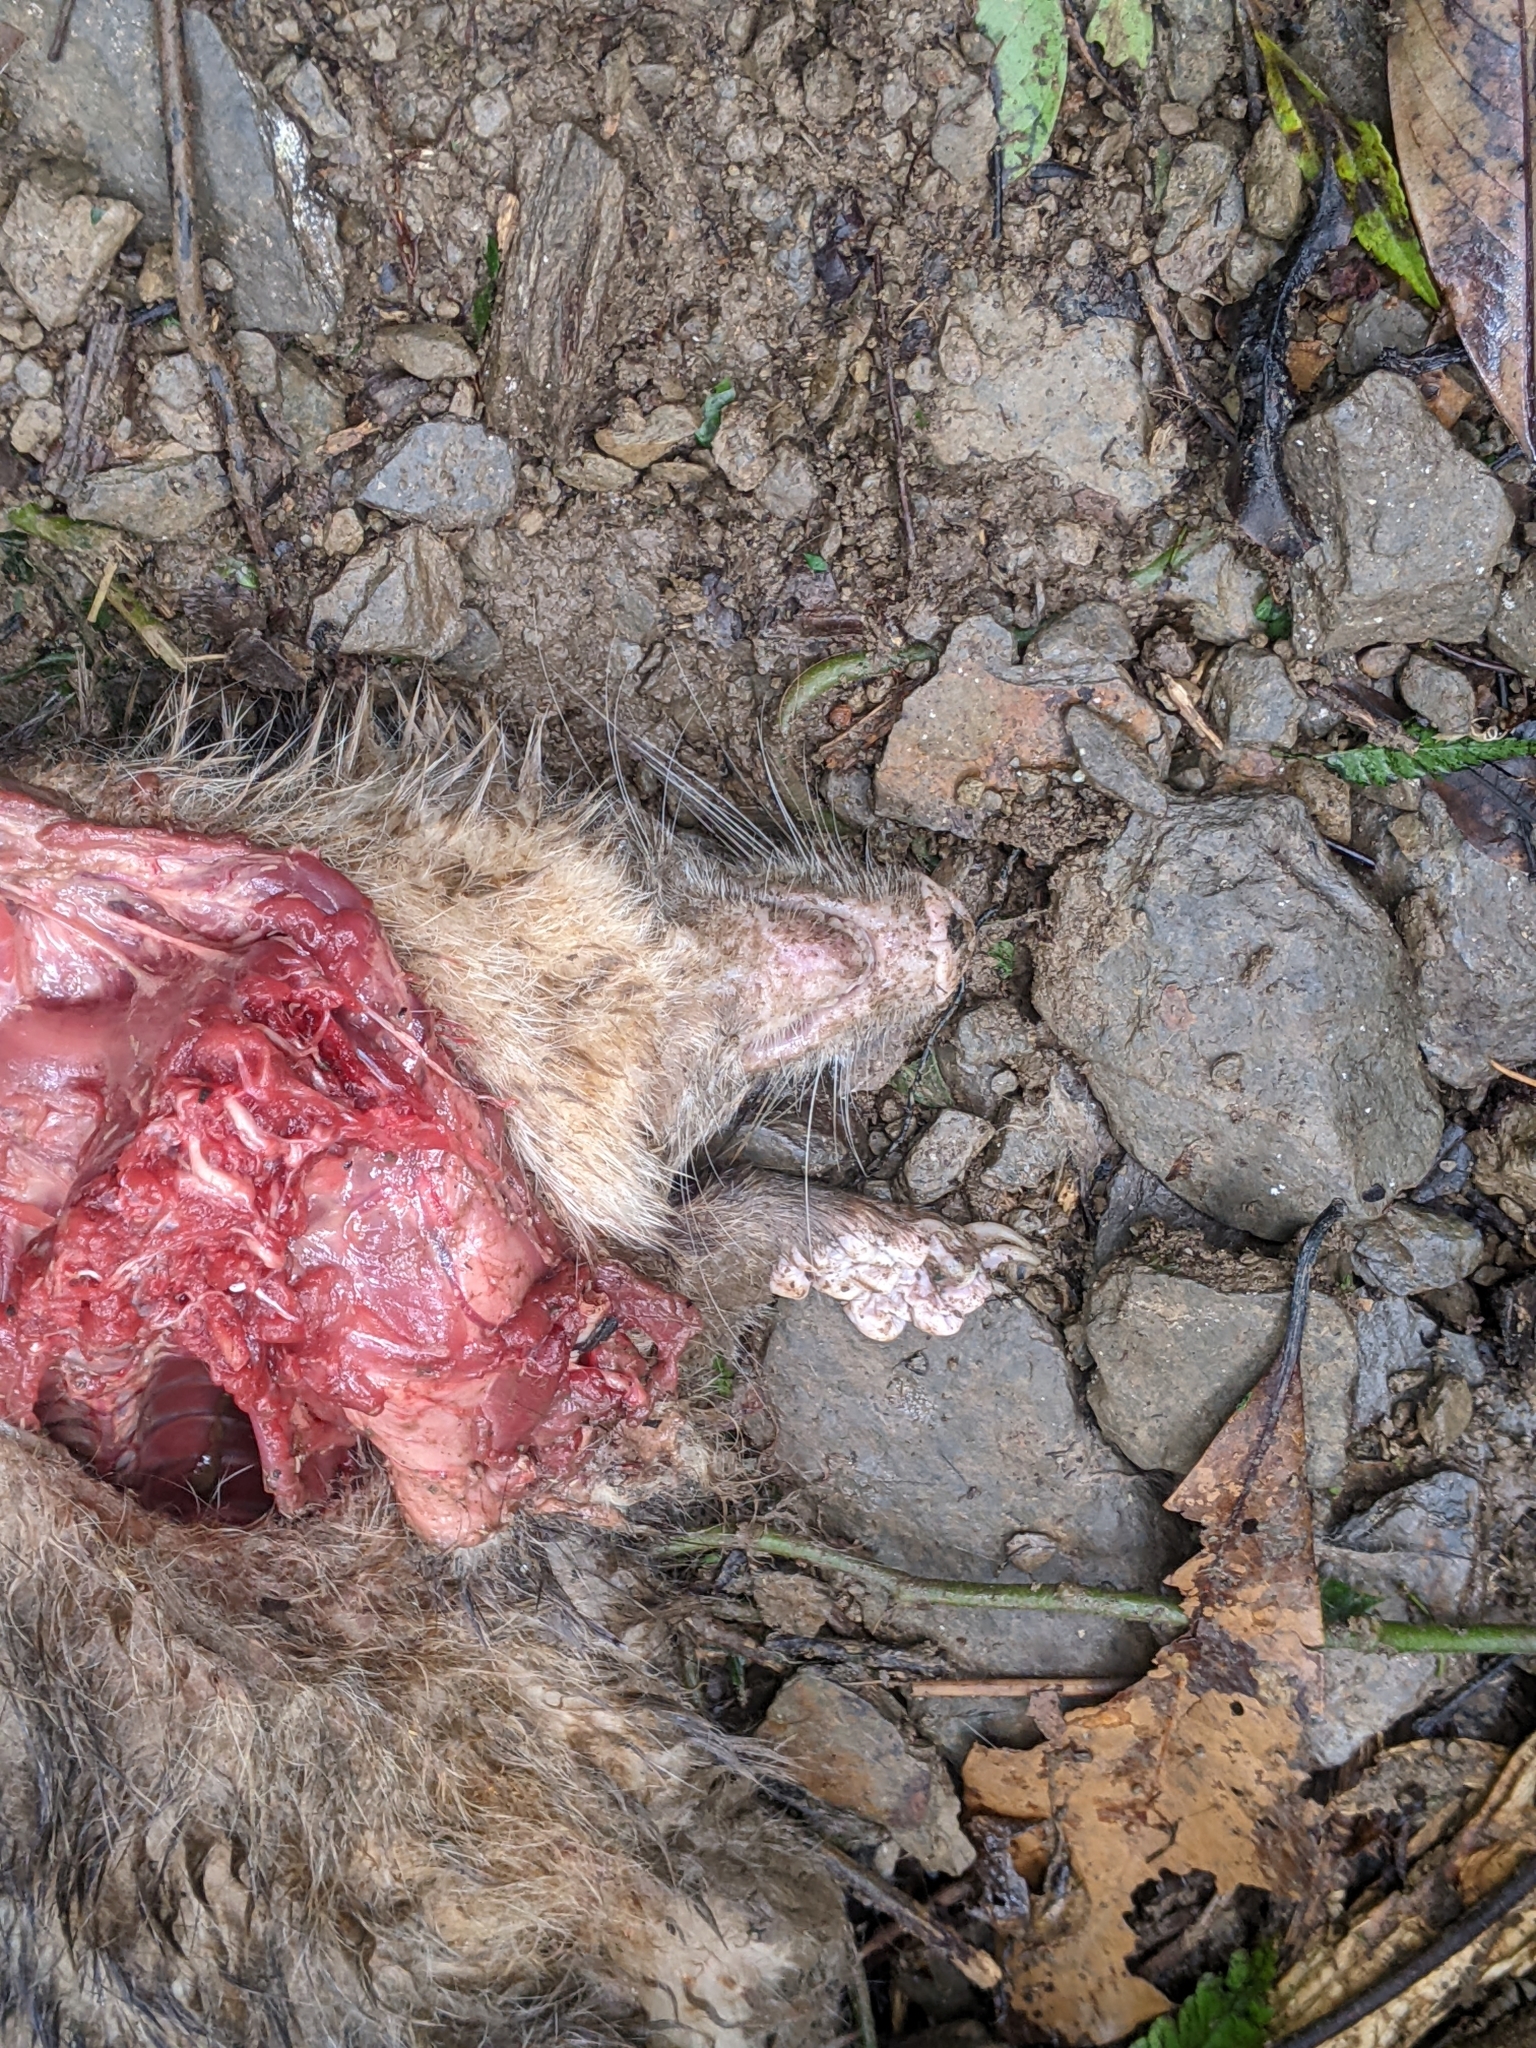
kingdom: Animalia
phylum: Chordata
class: Mammalia
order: Carnivora
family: Mustelidae
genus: Melogale
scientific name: Melogale
